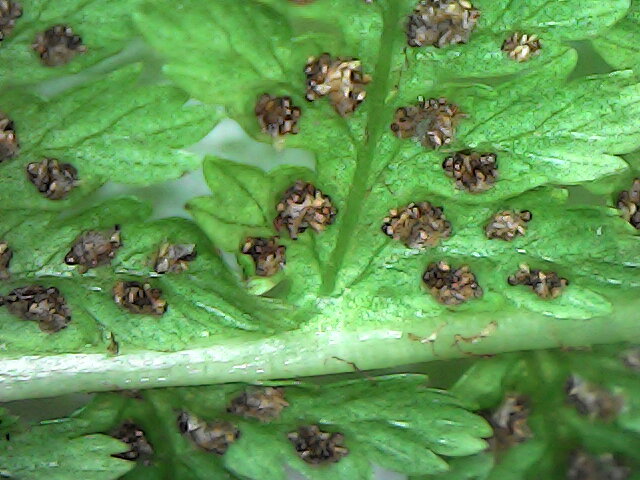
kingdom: Plantae
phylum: Tracheophyta
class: Polypodiopsida
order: Polypodiales
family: Athyriaceae
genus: Athyrium
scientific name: Athyrium filix-femina
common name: Lady fern
